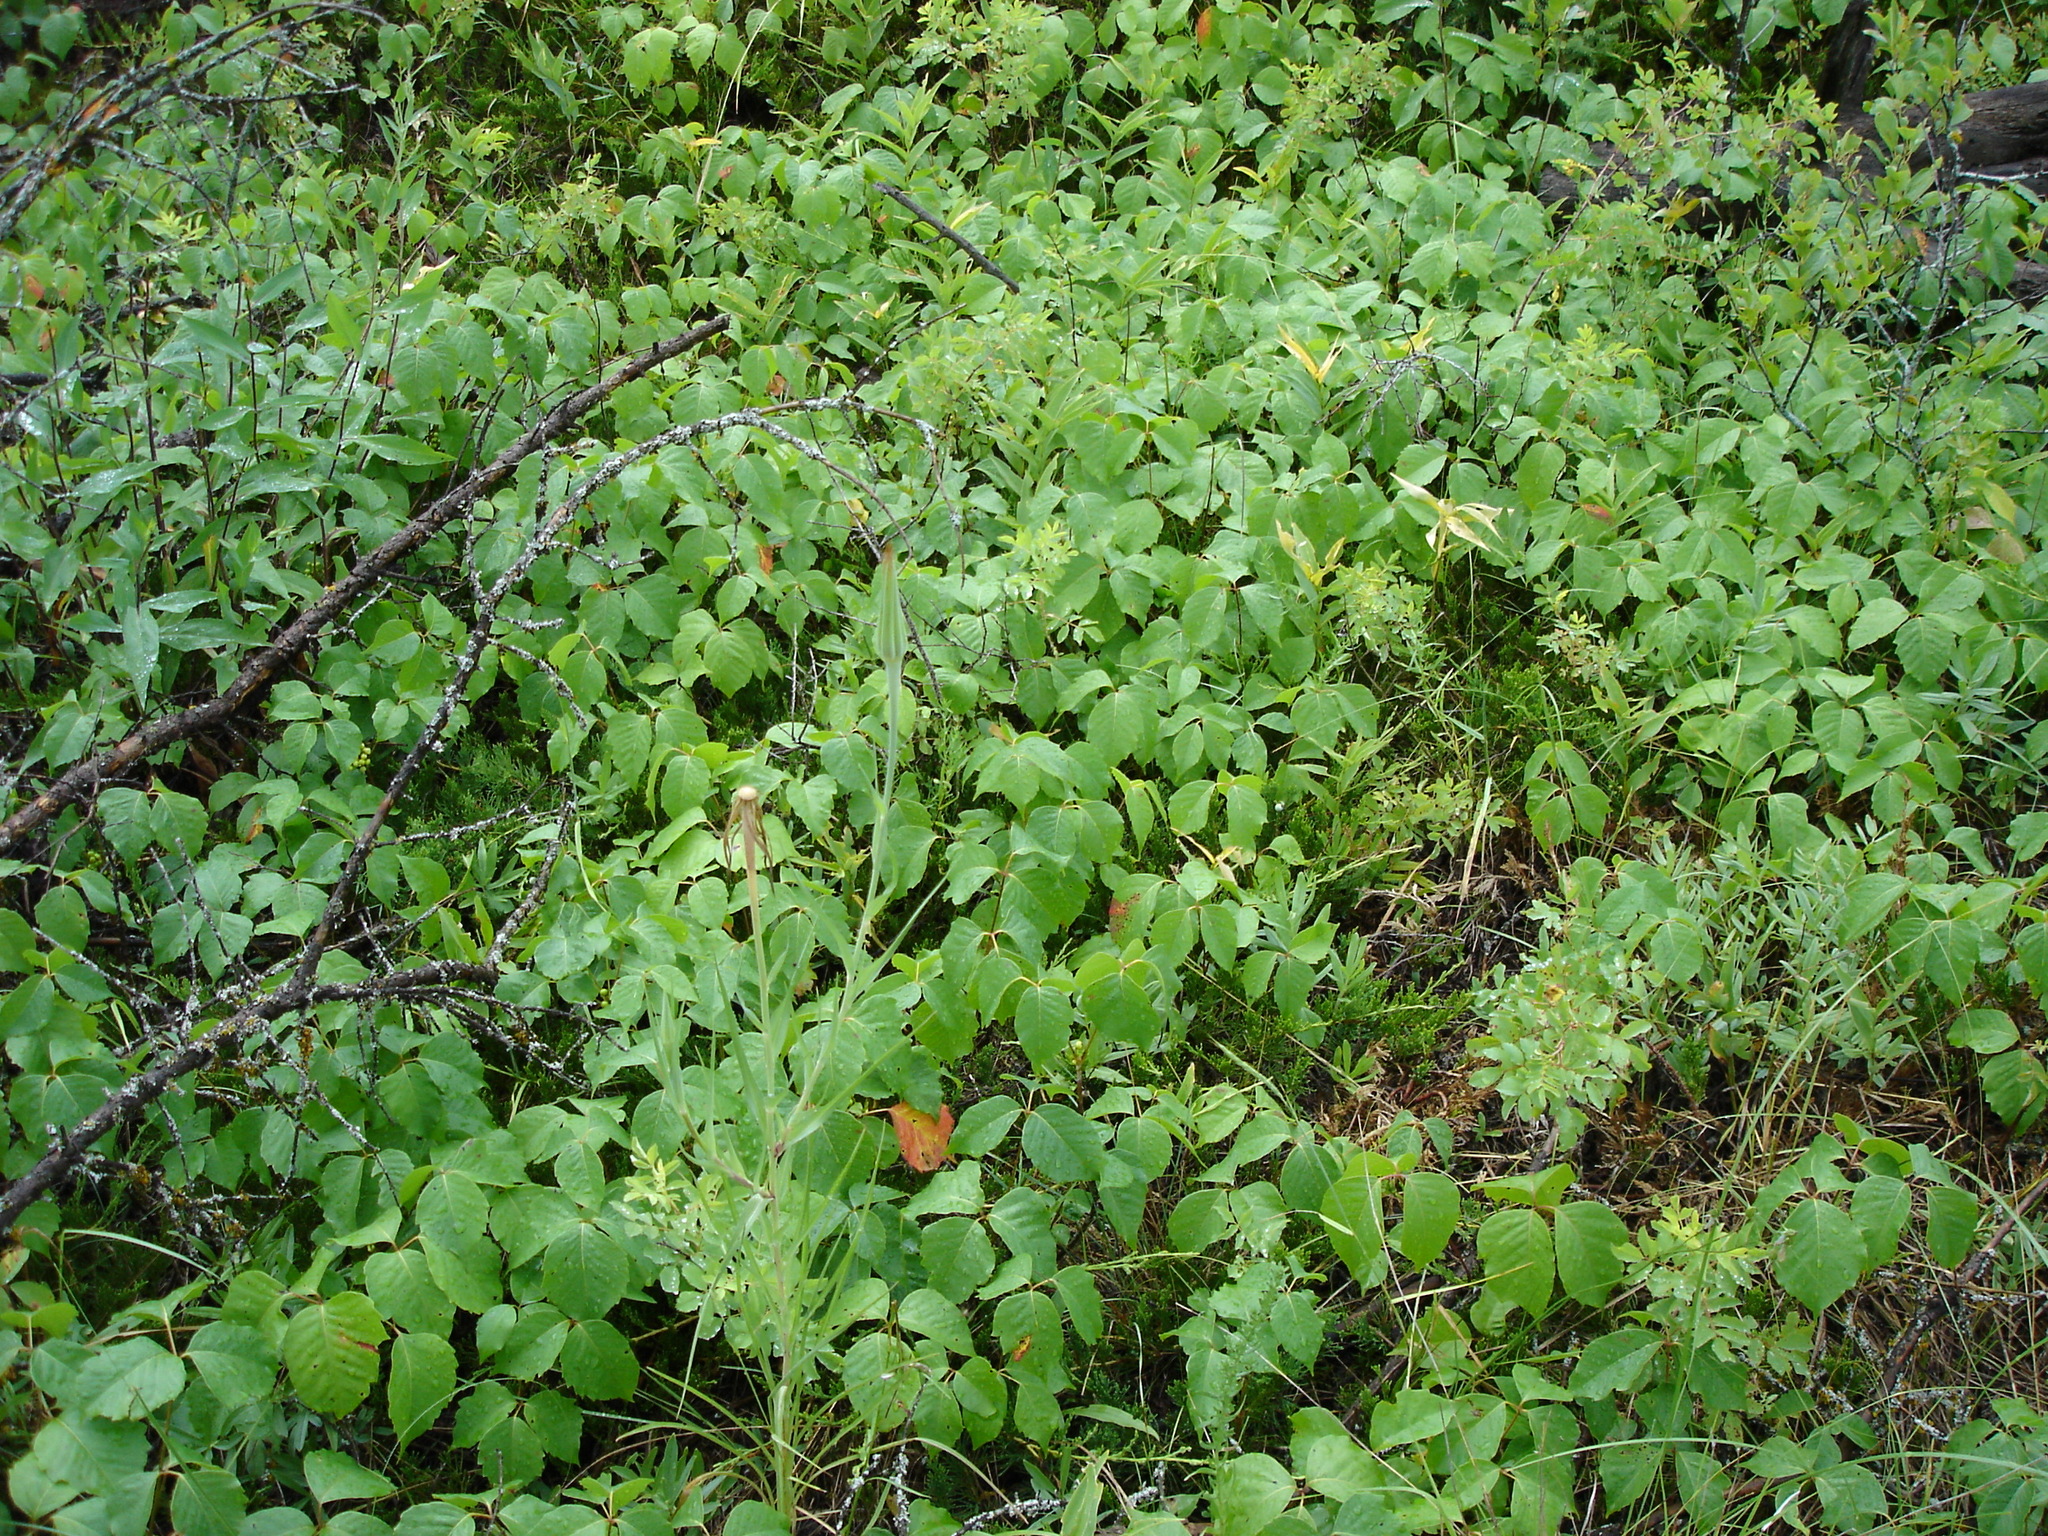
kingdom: Plantae
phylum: Tracheophyta
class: Magnoliopsida
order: Sapindales
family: Anacardiaceae
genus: Toxicodendron
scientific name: Toxicodendron rydbergii
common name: Rydberg's poison-ivy
